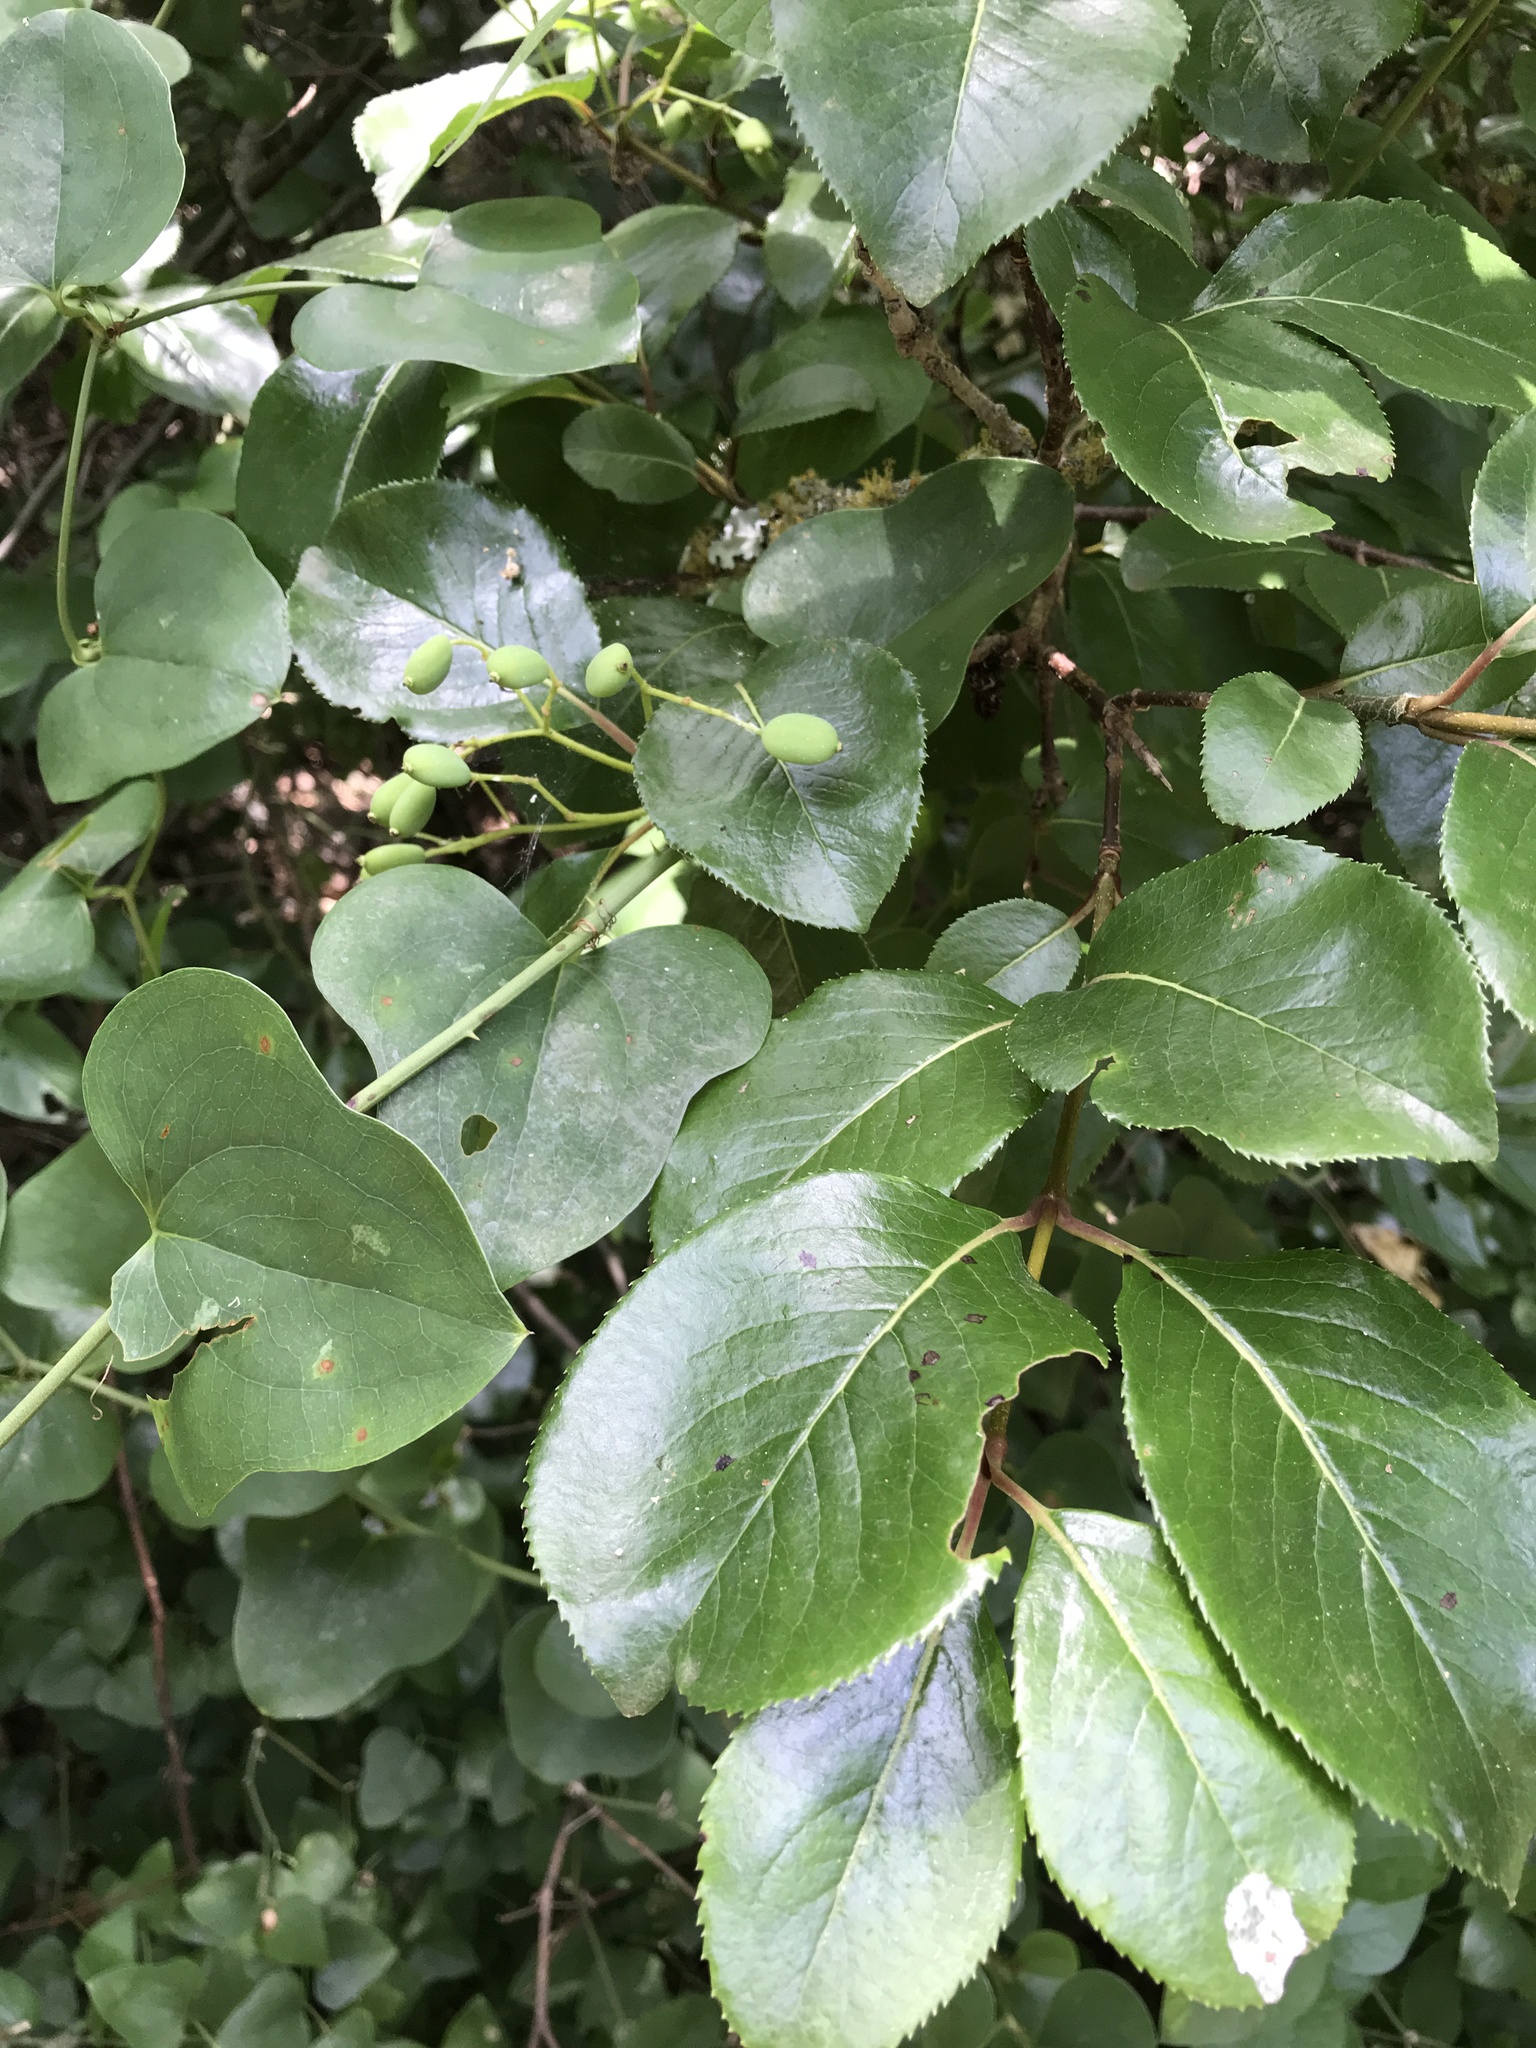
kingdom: Plantae
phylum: Tracheophyta
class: Magnoliopsida
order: Dipsacales
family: Viburnaceae
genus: Viburnum
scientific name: Viburnum rufidulum
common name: Blue haw
